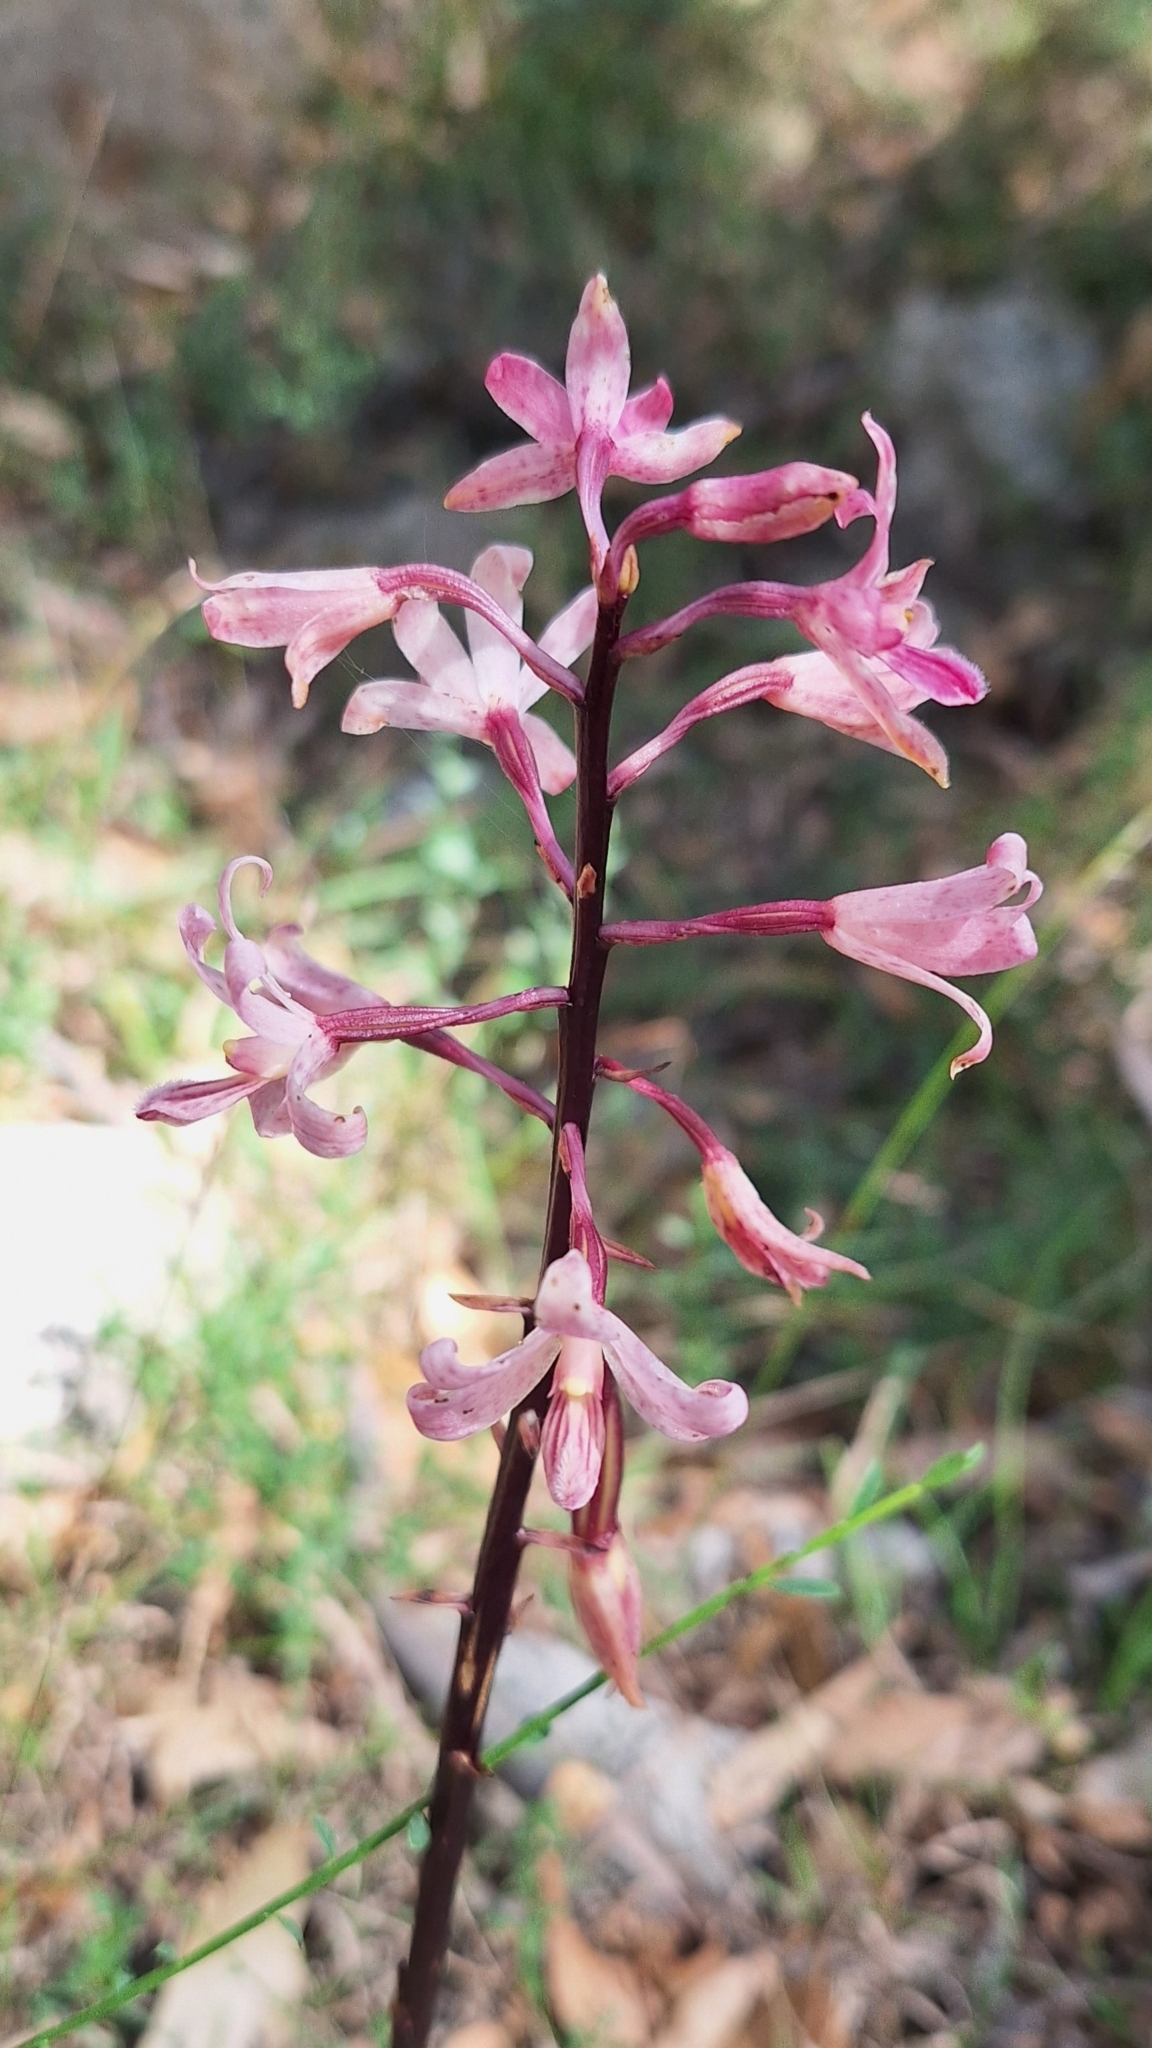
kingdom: Plantae
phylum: Tracheophyta
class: Liliopsida
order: Asparagales
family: Orchidaceae
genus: Dipodium
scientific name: Dipodium roseum
